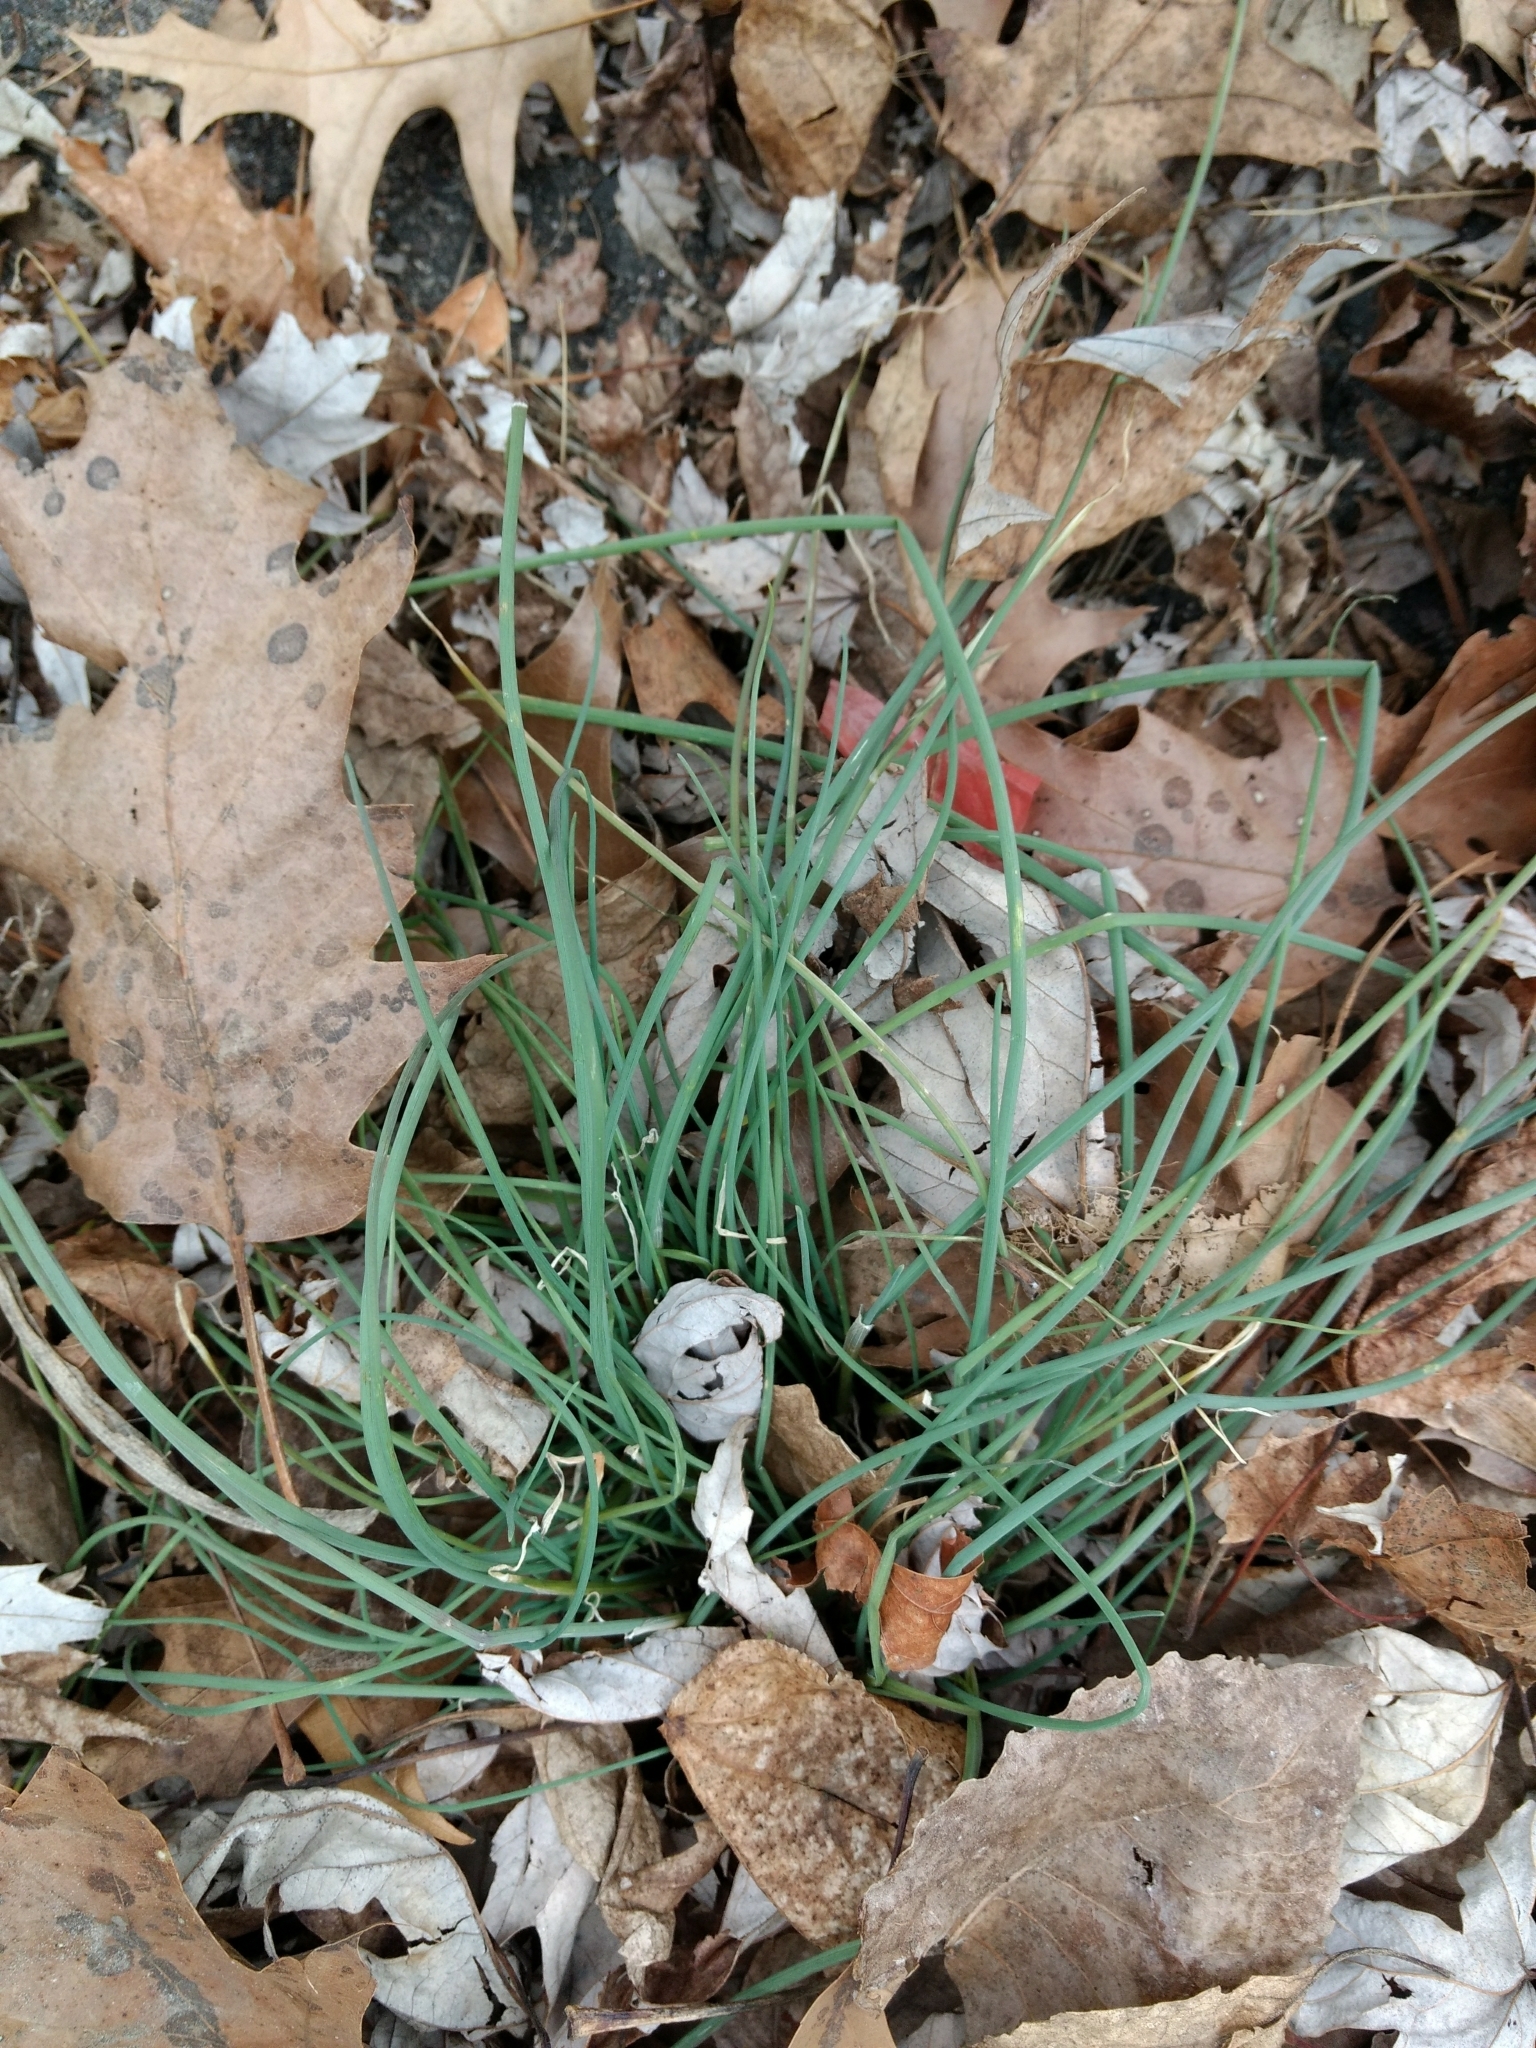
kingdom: Plantae
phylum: Tracheophyta
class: Liliopsida
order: Asparagales
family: Amaryllidaceae
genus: Allium
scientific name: Allium vineale
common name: Crow garlic
